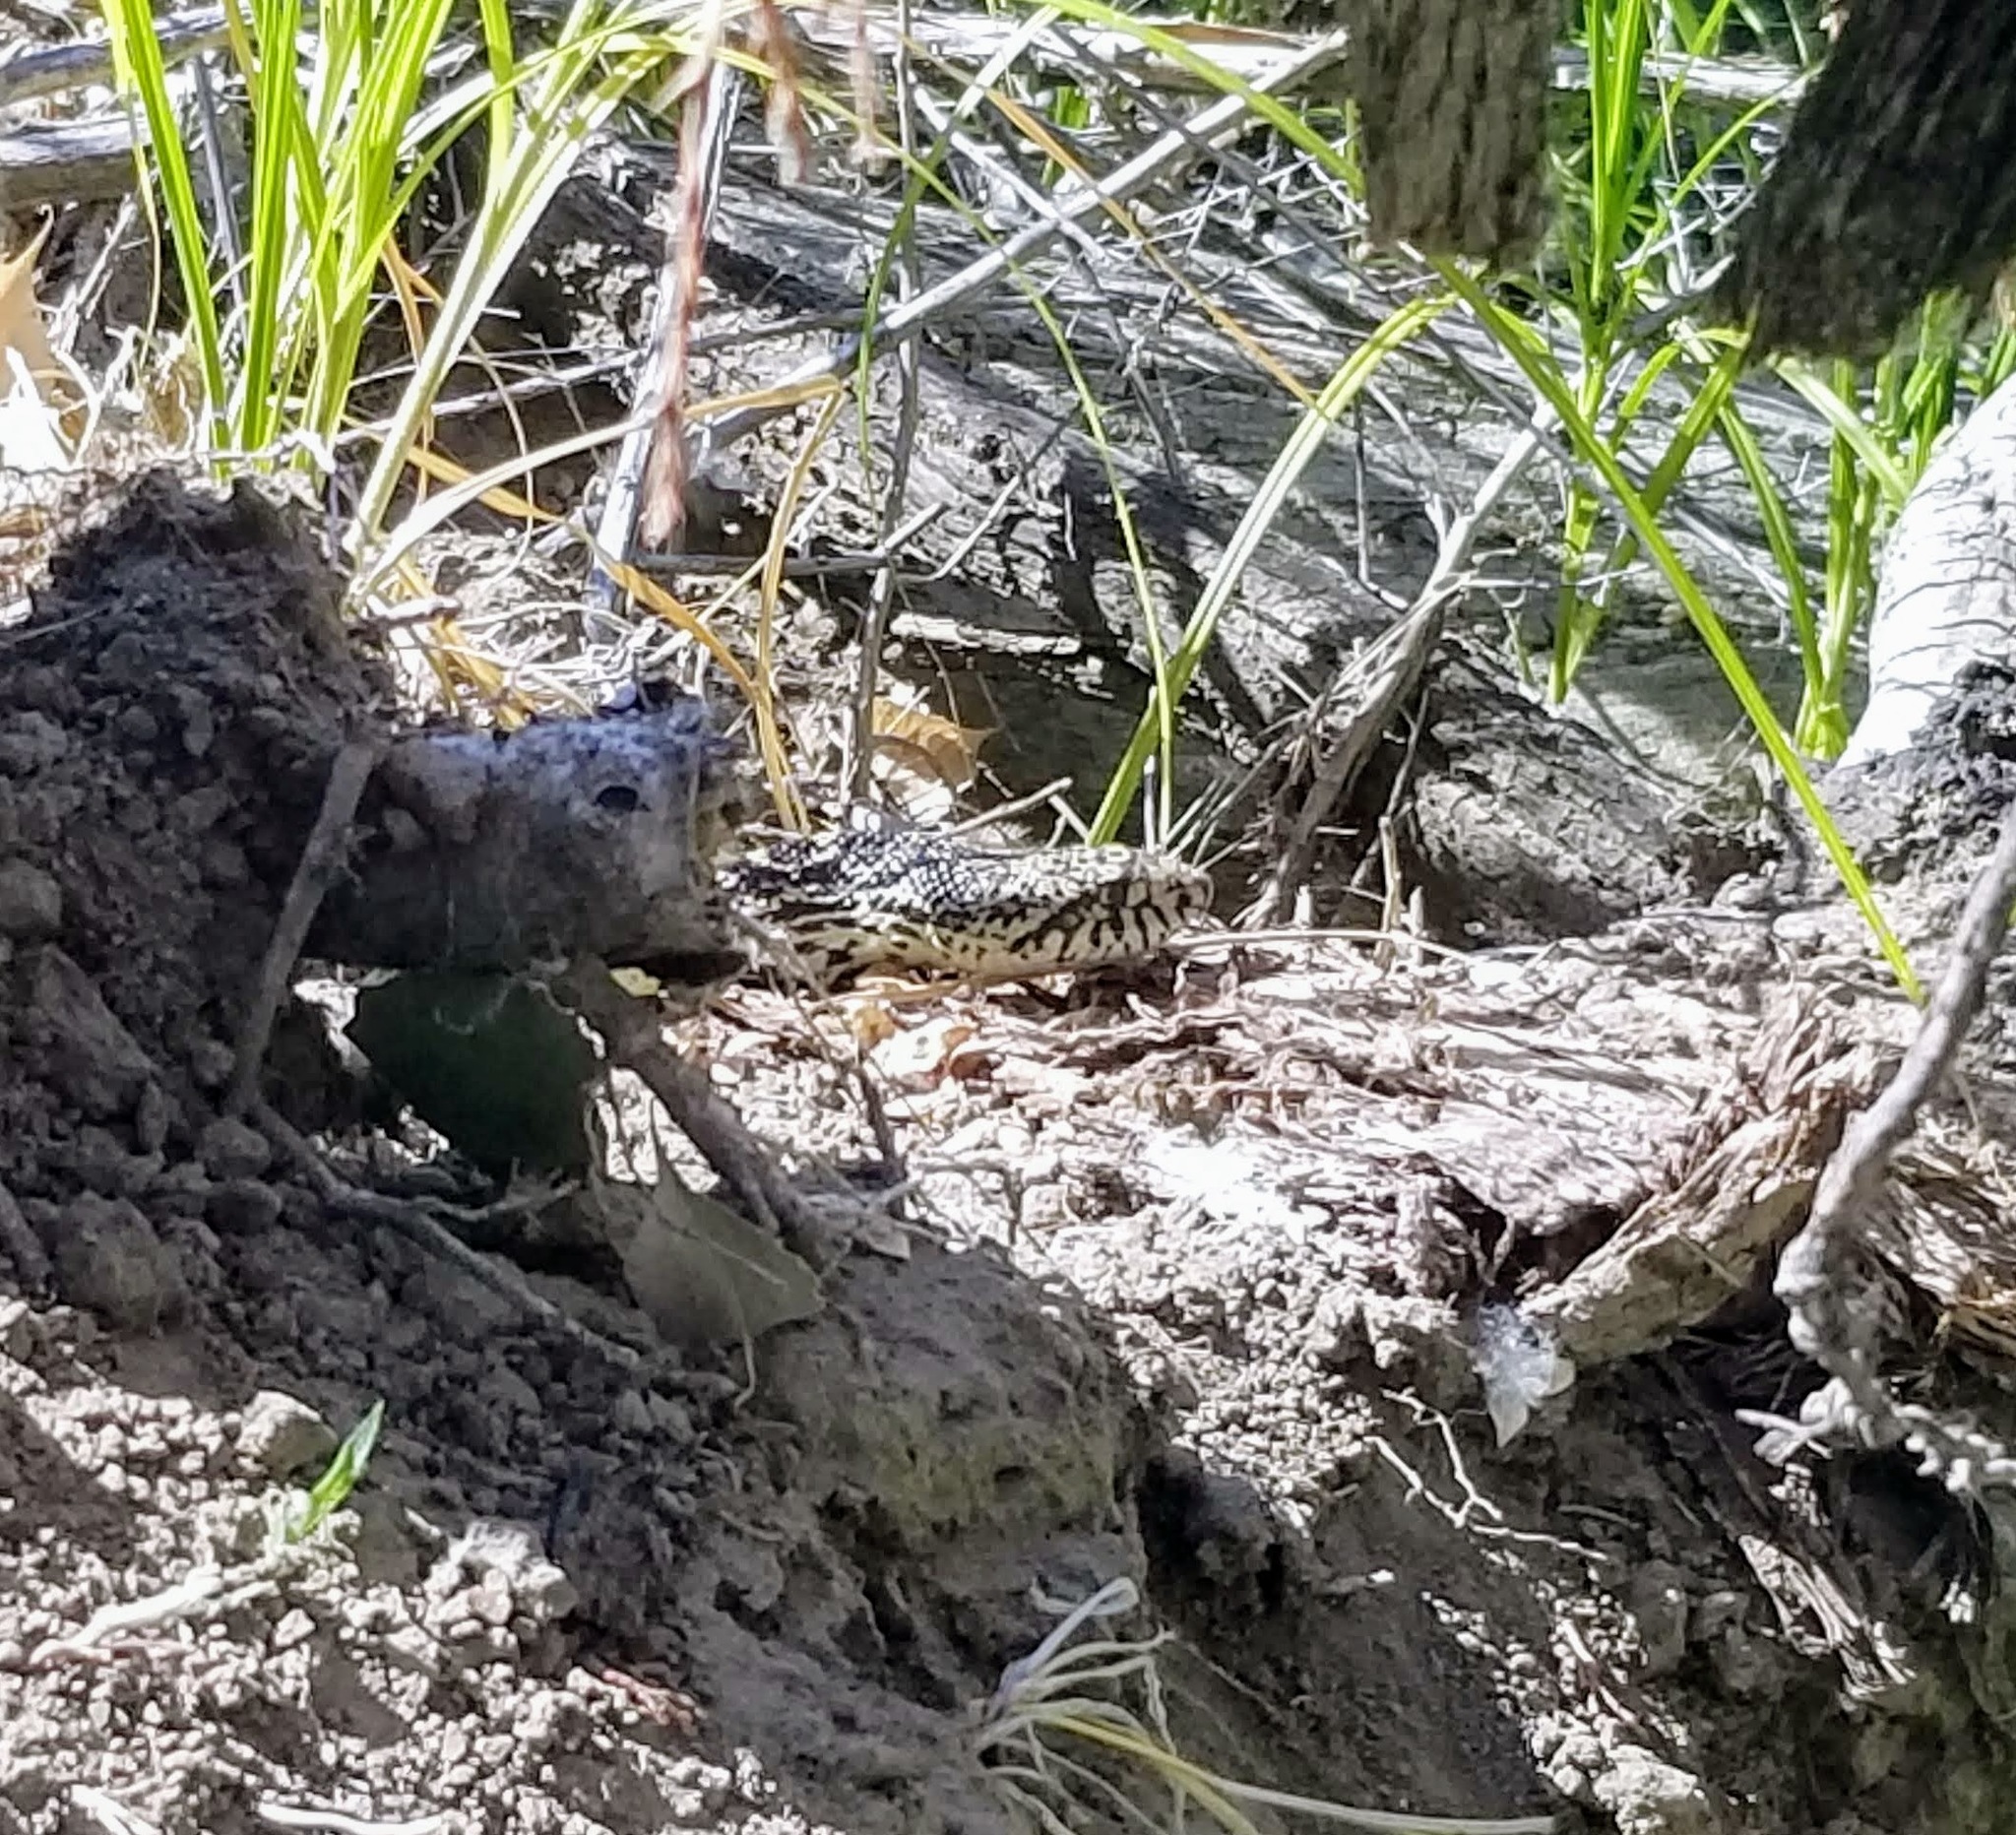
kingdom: Animalia
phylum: Chordata
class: Squamata
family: Colubridae
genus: Pituophis
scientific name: Pituophis catenifer
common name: Gopher snake
